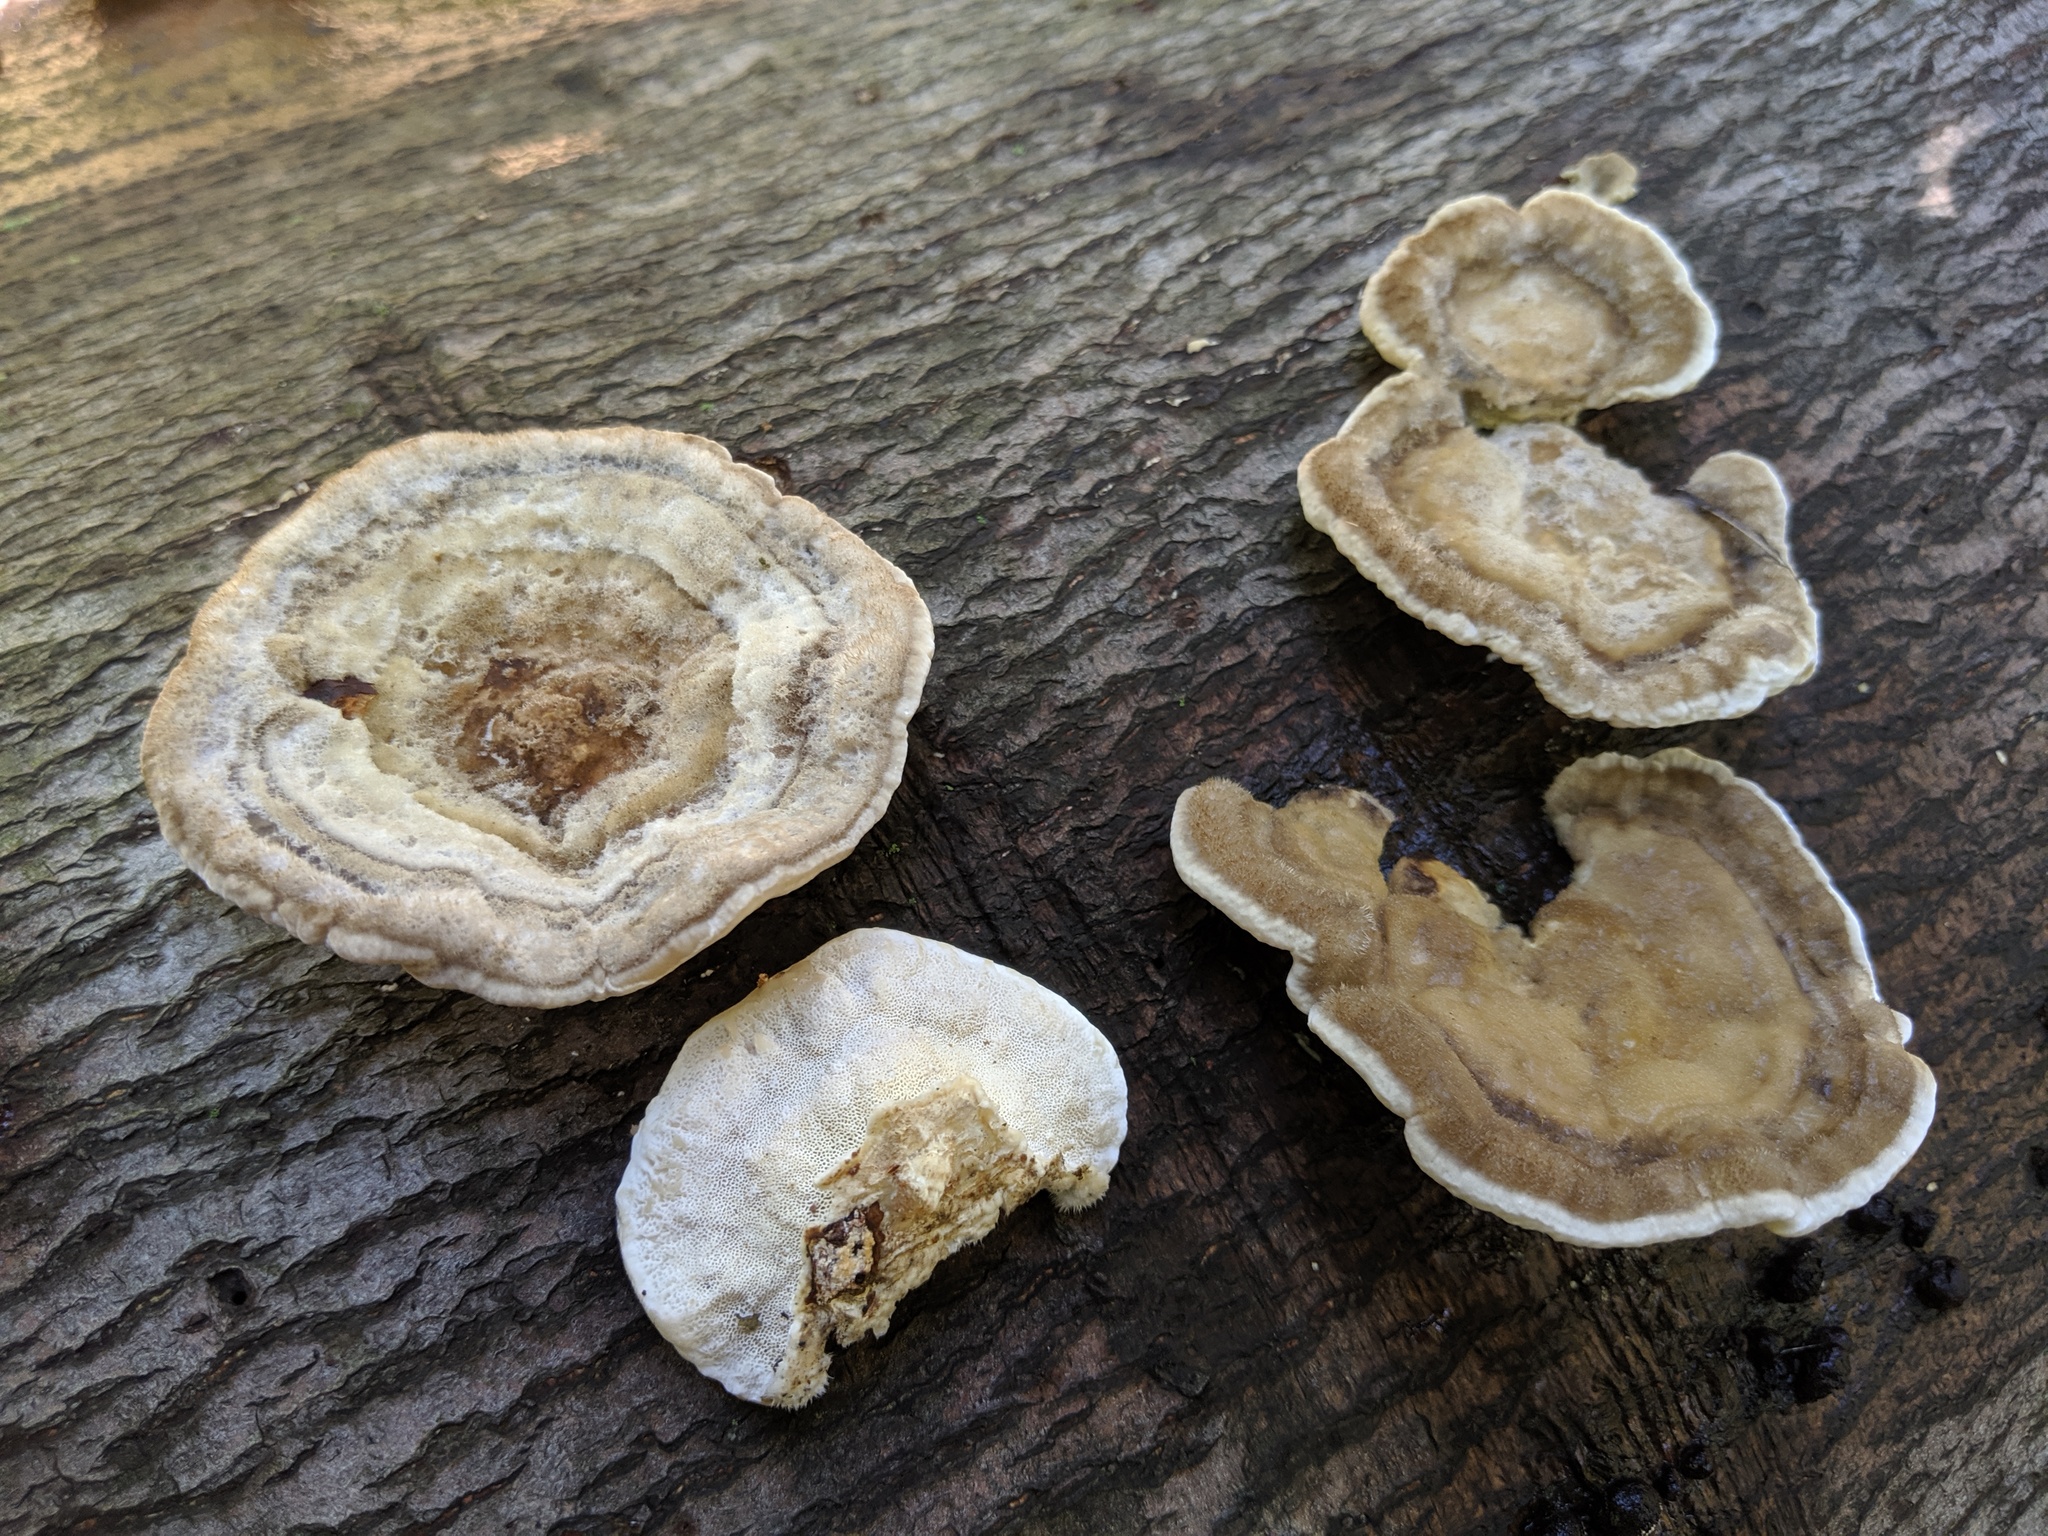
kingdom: Fungi
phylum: Basidiomycota
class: Agaricomycetes
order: Polyporales
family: Polyporaceae
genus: Trametes
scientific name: Trametes hirsuta
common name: Hairy bracket
